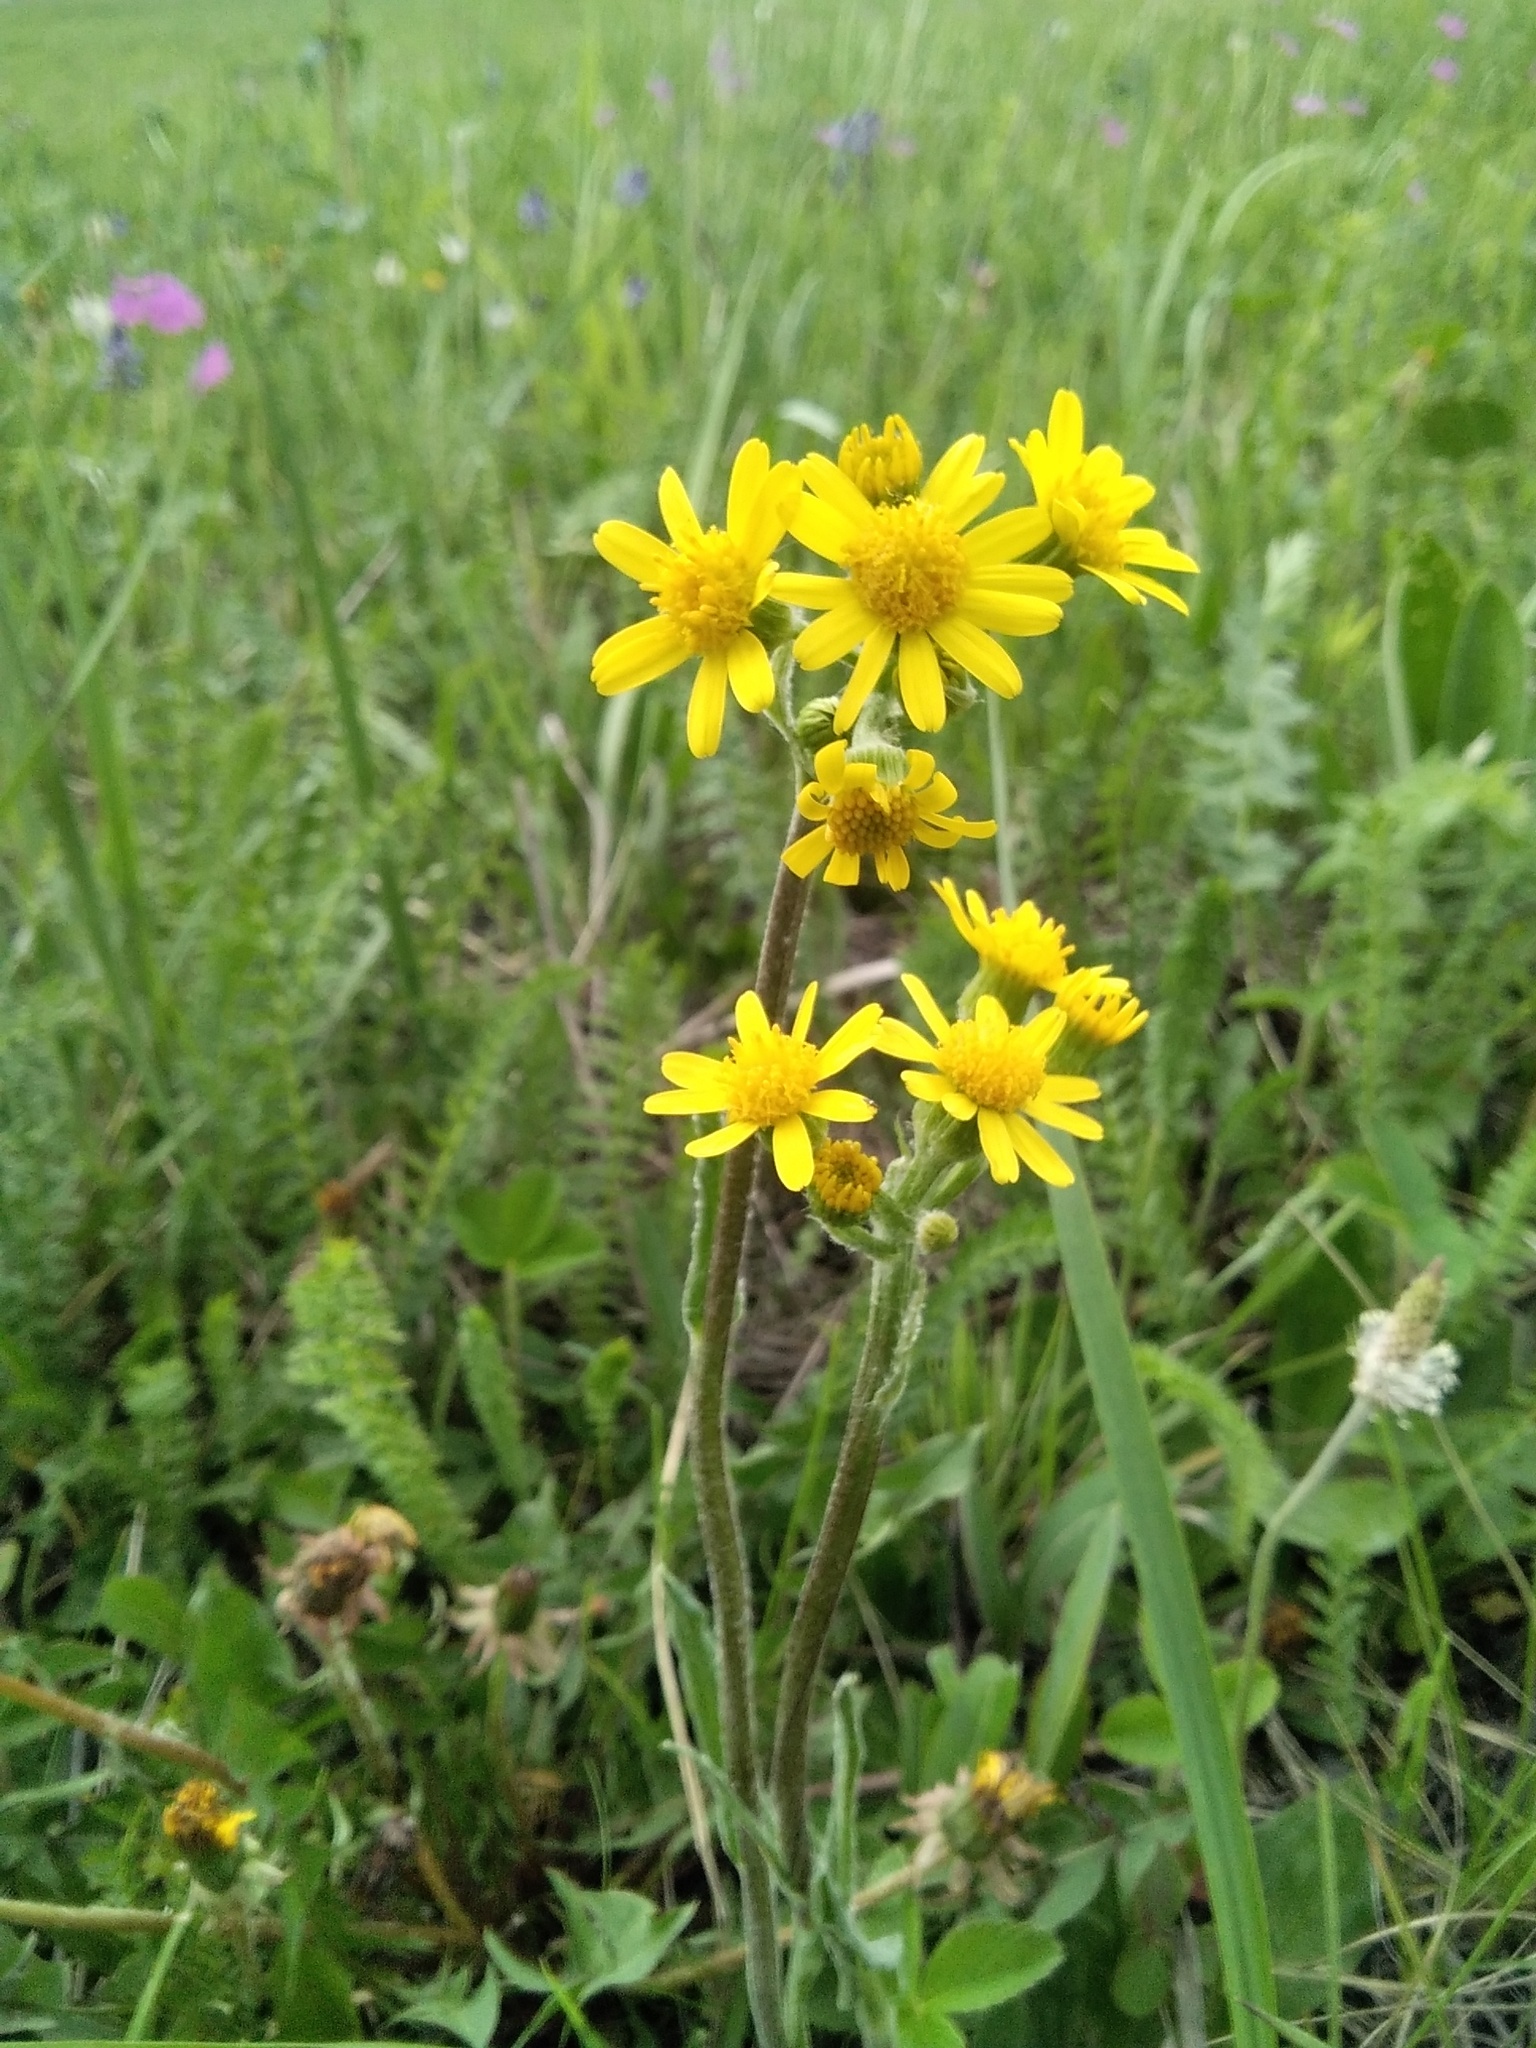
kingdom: Plantae
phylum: Tracheophyta
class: Magnoliopsida
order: Asterales
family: Asteraceae
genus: Tephroseris
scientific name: Tephroseris integrifolia
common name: Field fleawort
